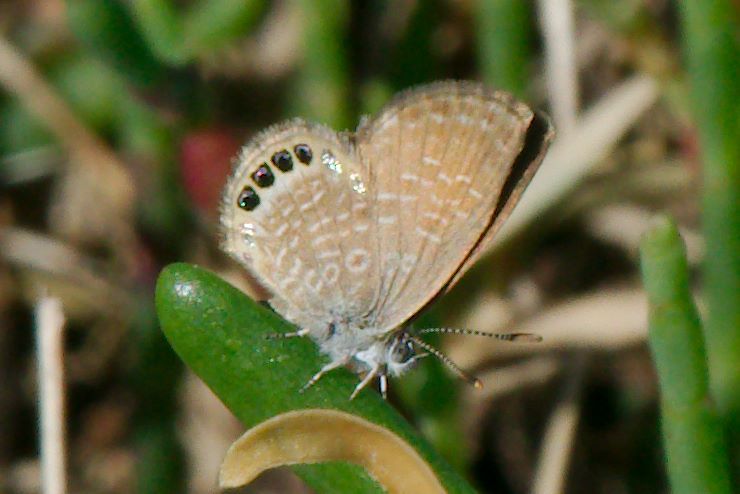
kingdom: Animalia
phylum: Arthropoda
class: Insecta
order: Lepidoptera
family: Lycaenidae
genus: Brephidium
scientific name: Brephidium isophthalma
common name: Eastern pygmy-blue
